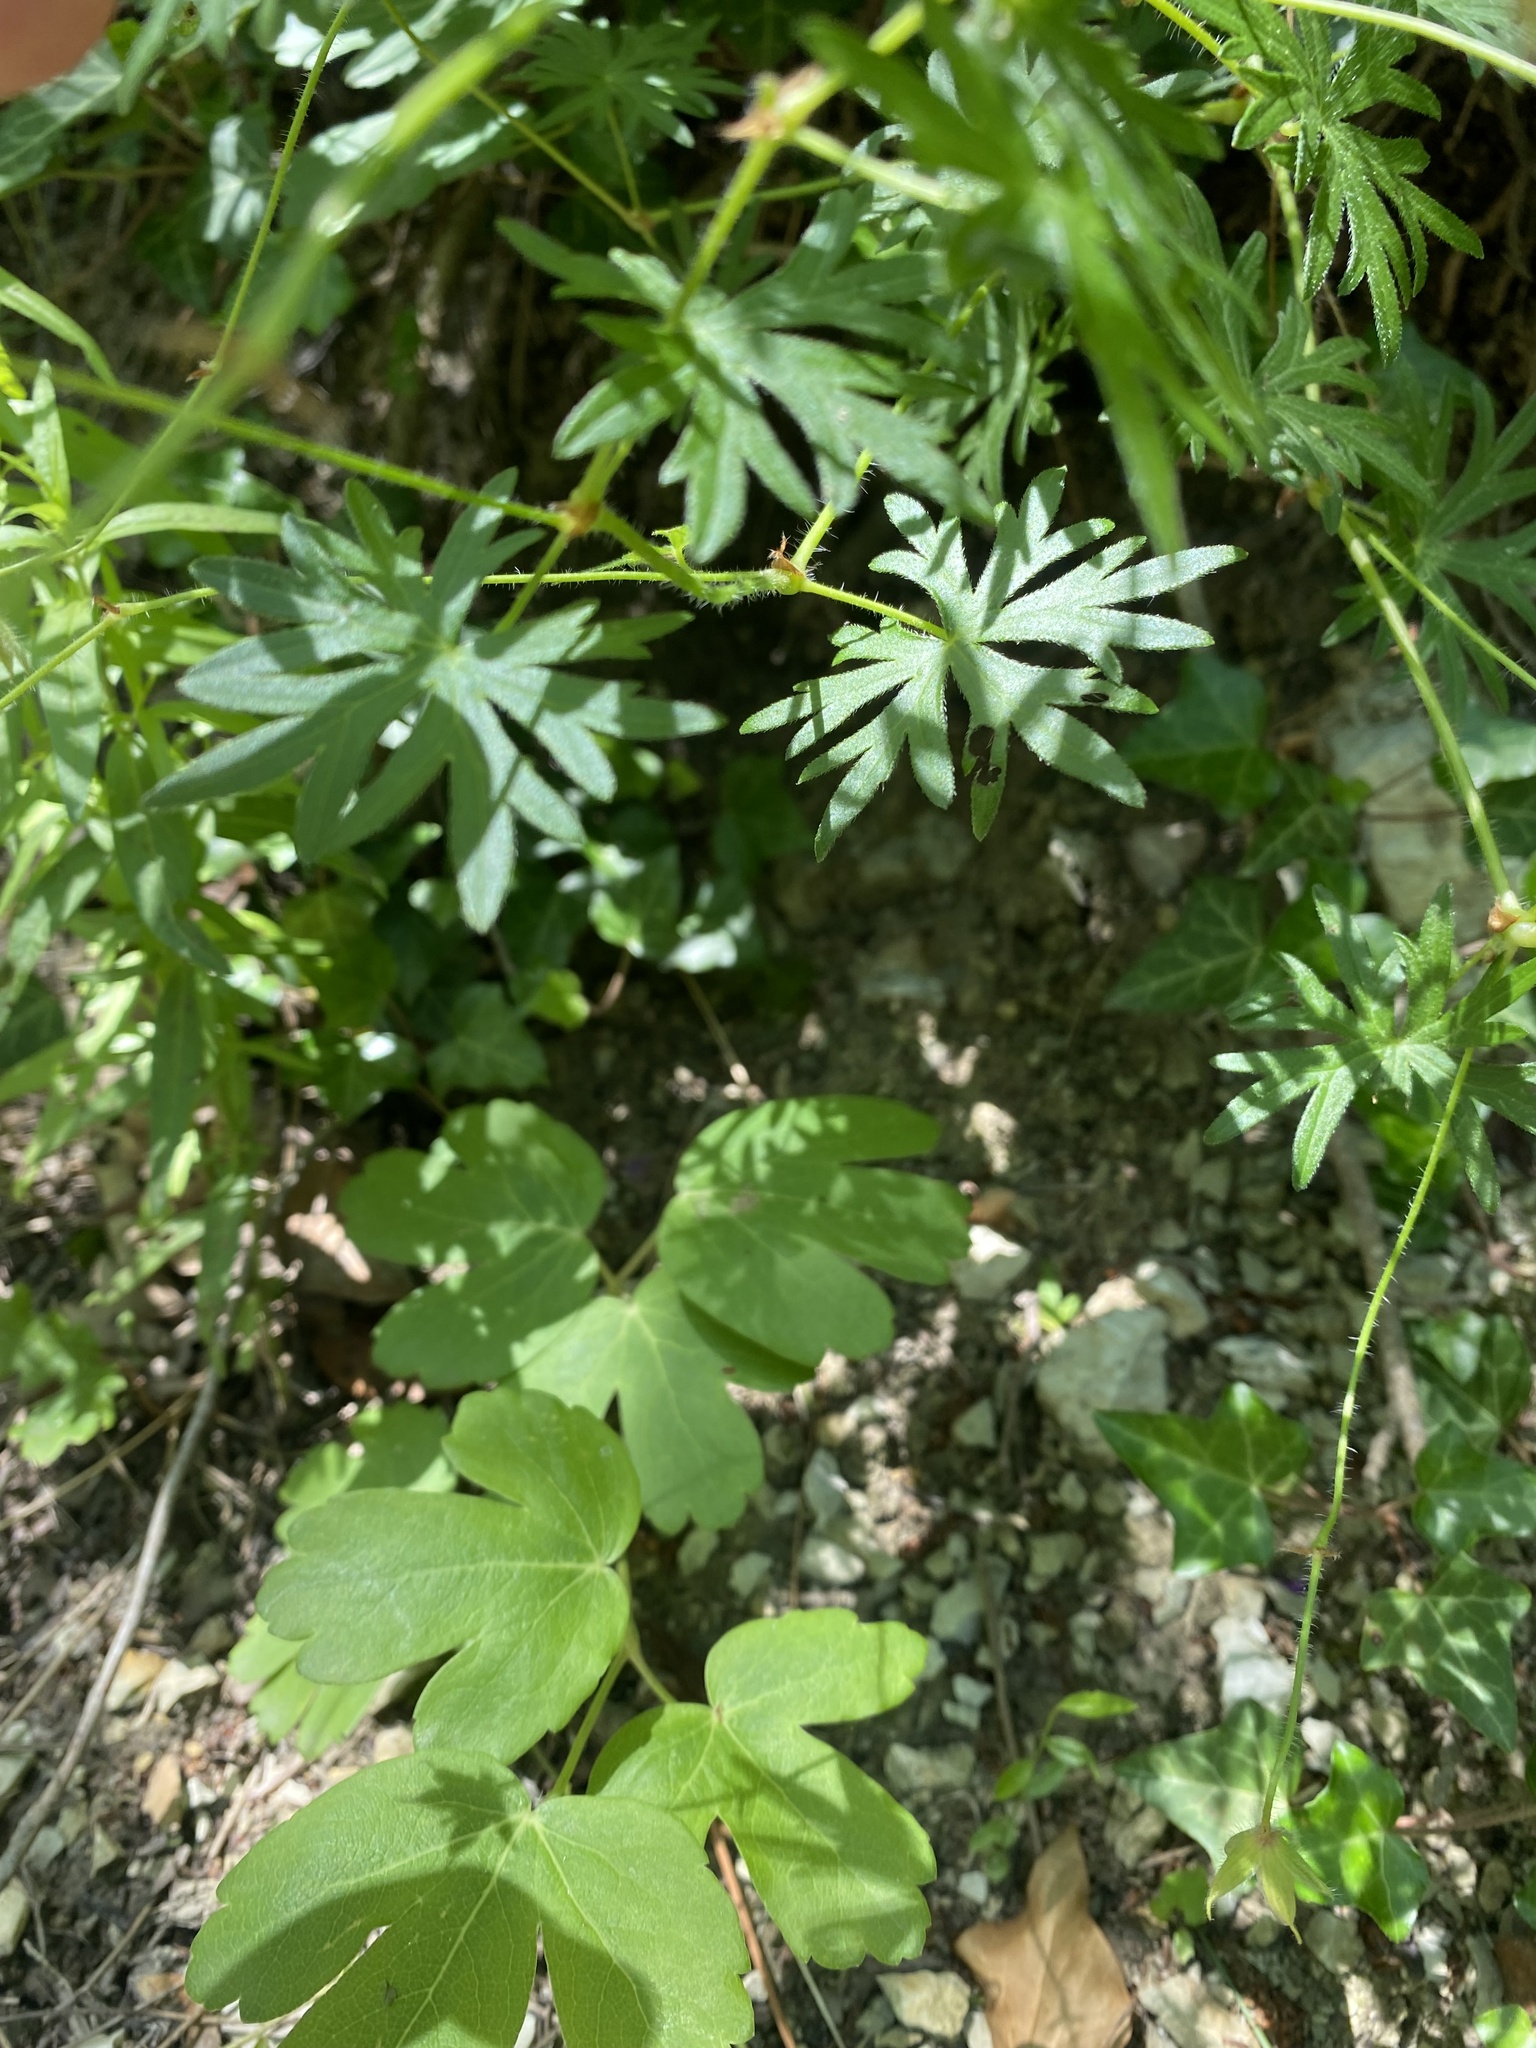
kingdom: Plantae
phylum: Tracheophyta
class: Magnoliopsida
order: Geraniales
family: Geraniaceae
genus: Geranium
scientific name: Geranium sanguineum
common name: Bloody crane's-bill
